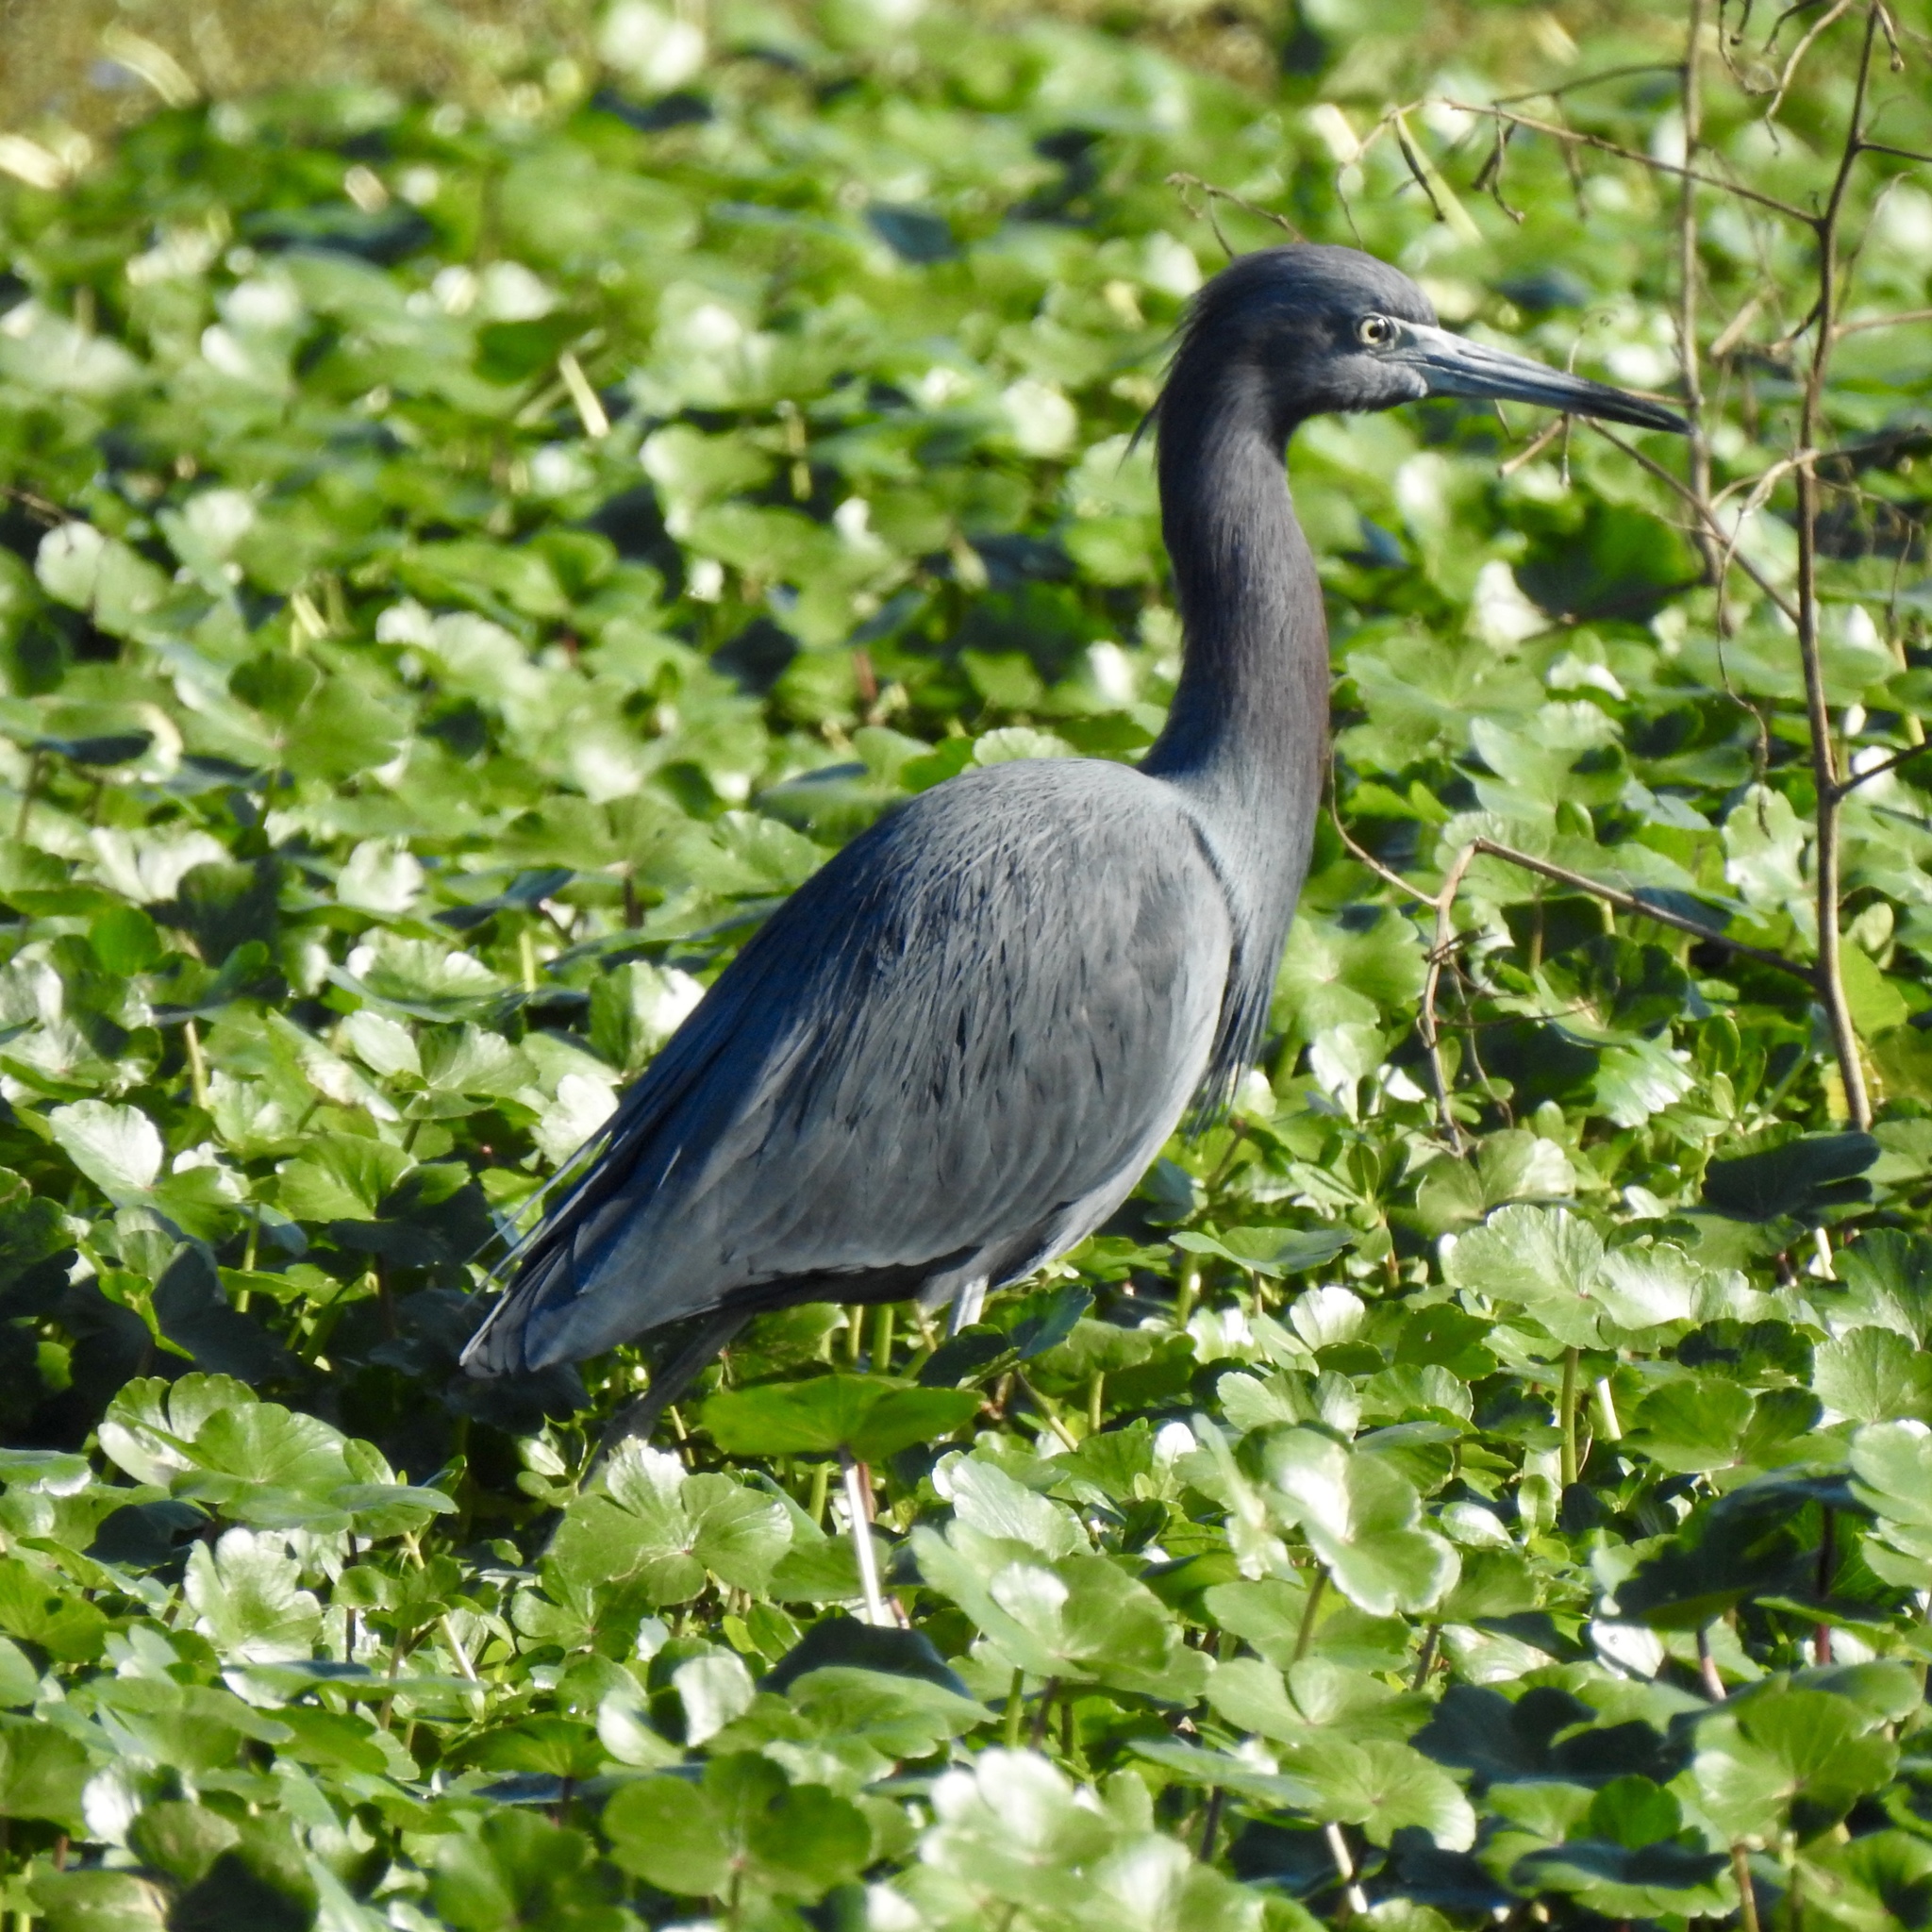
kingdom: Animalia
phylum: Chordata
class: Aves
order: Pelecaniformes
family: Ardeidae
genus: Egretta
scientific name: Egretta caerulea
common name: Little blue heron
